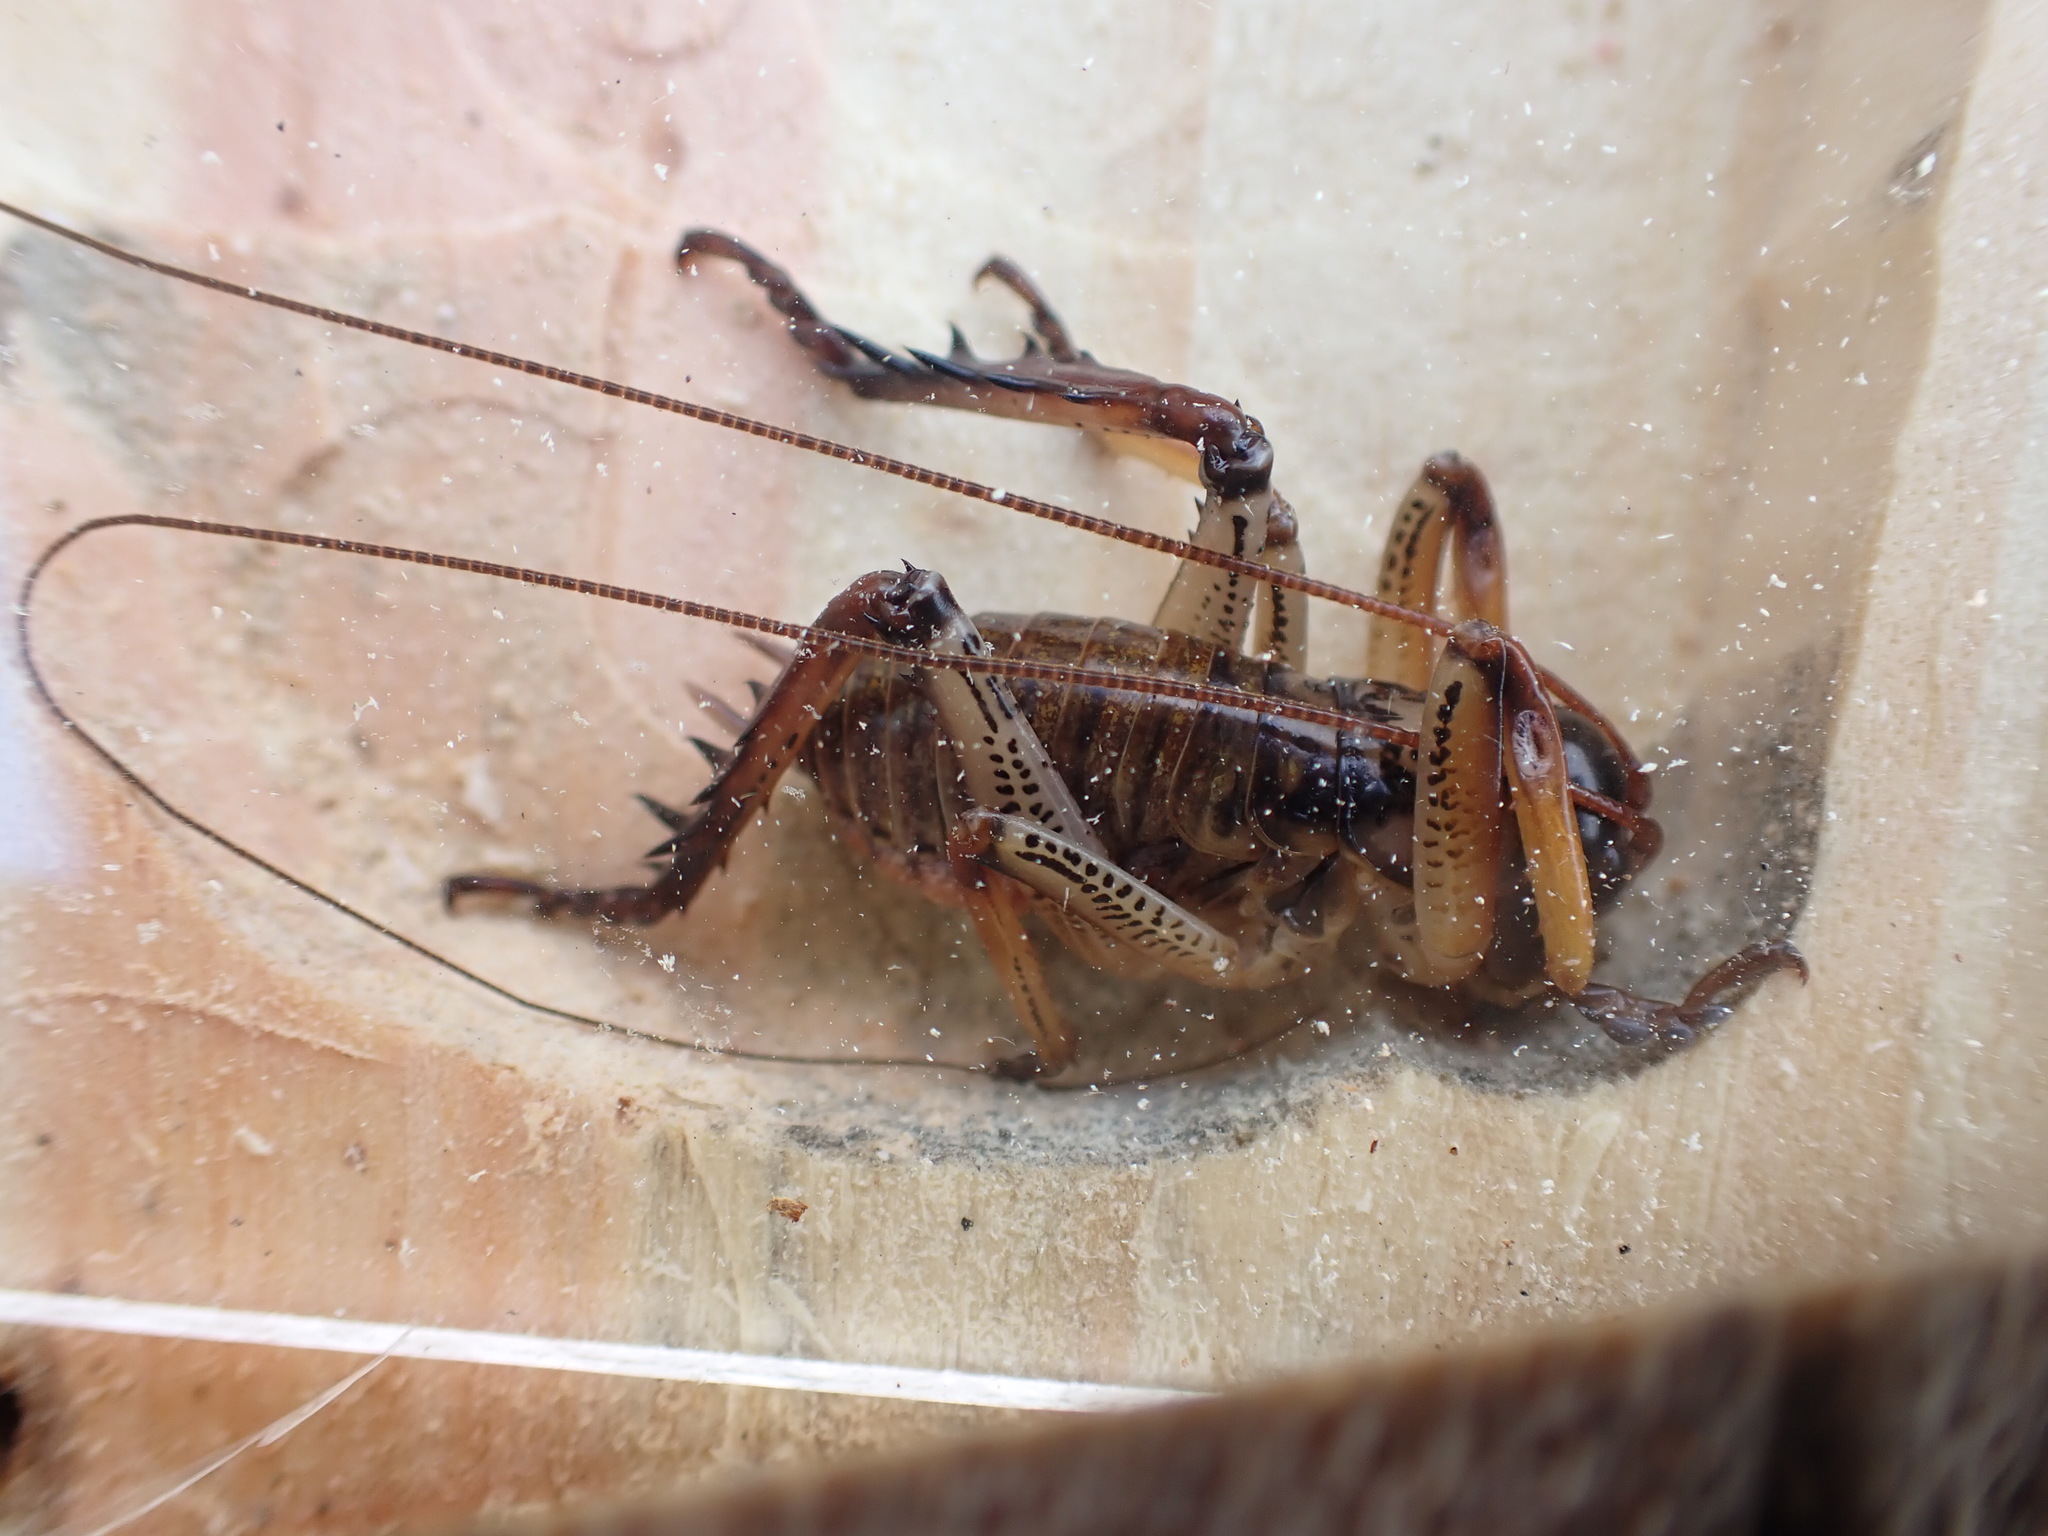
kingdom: Animalia
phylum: Arthropoda
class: Insecta
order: Orthoptera
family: Anostostomatidae
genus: Hemideina
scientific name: Hemideina thoracica
